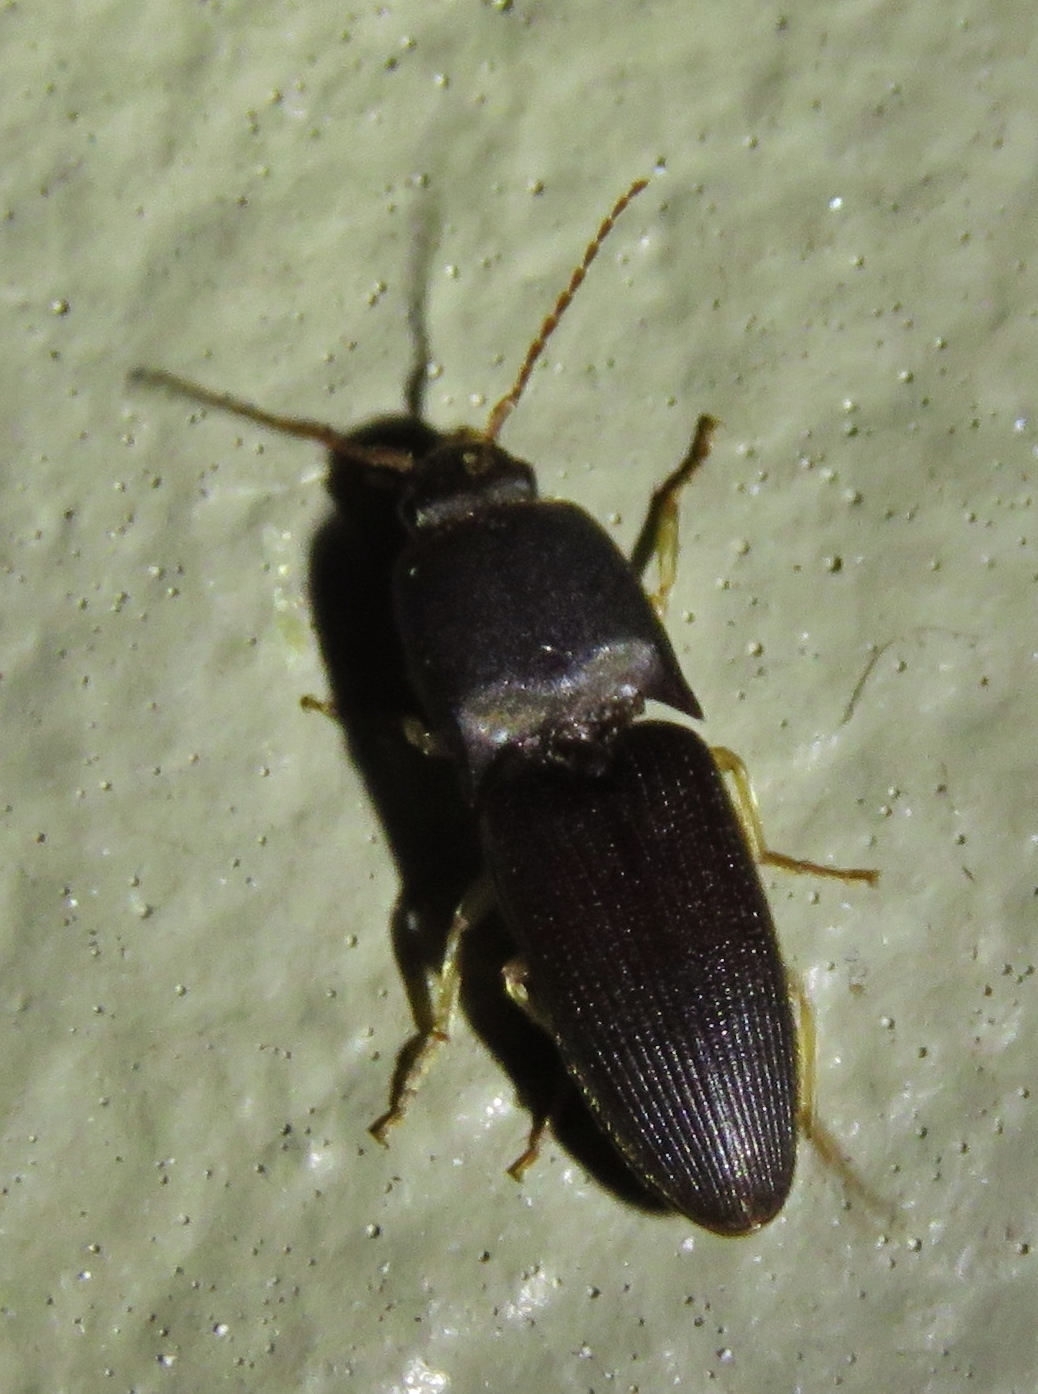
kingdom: Animalia
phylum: Arthropoda
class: Insecta
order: Coleoptera
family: Elateridae
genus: Heteroderes
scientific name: Heteroderes amplicollis
